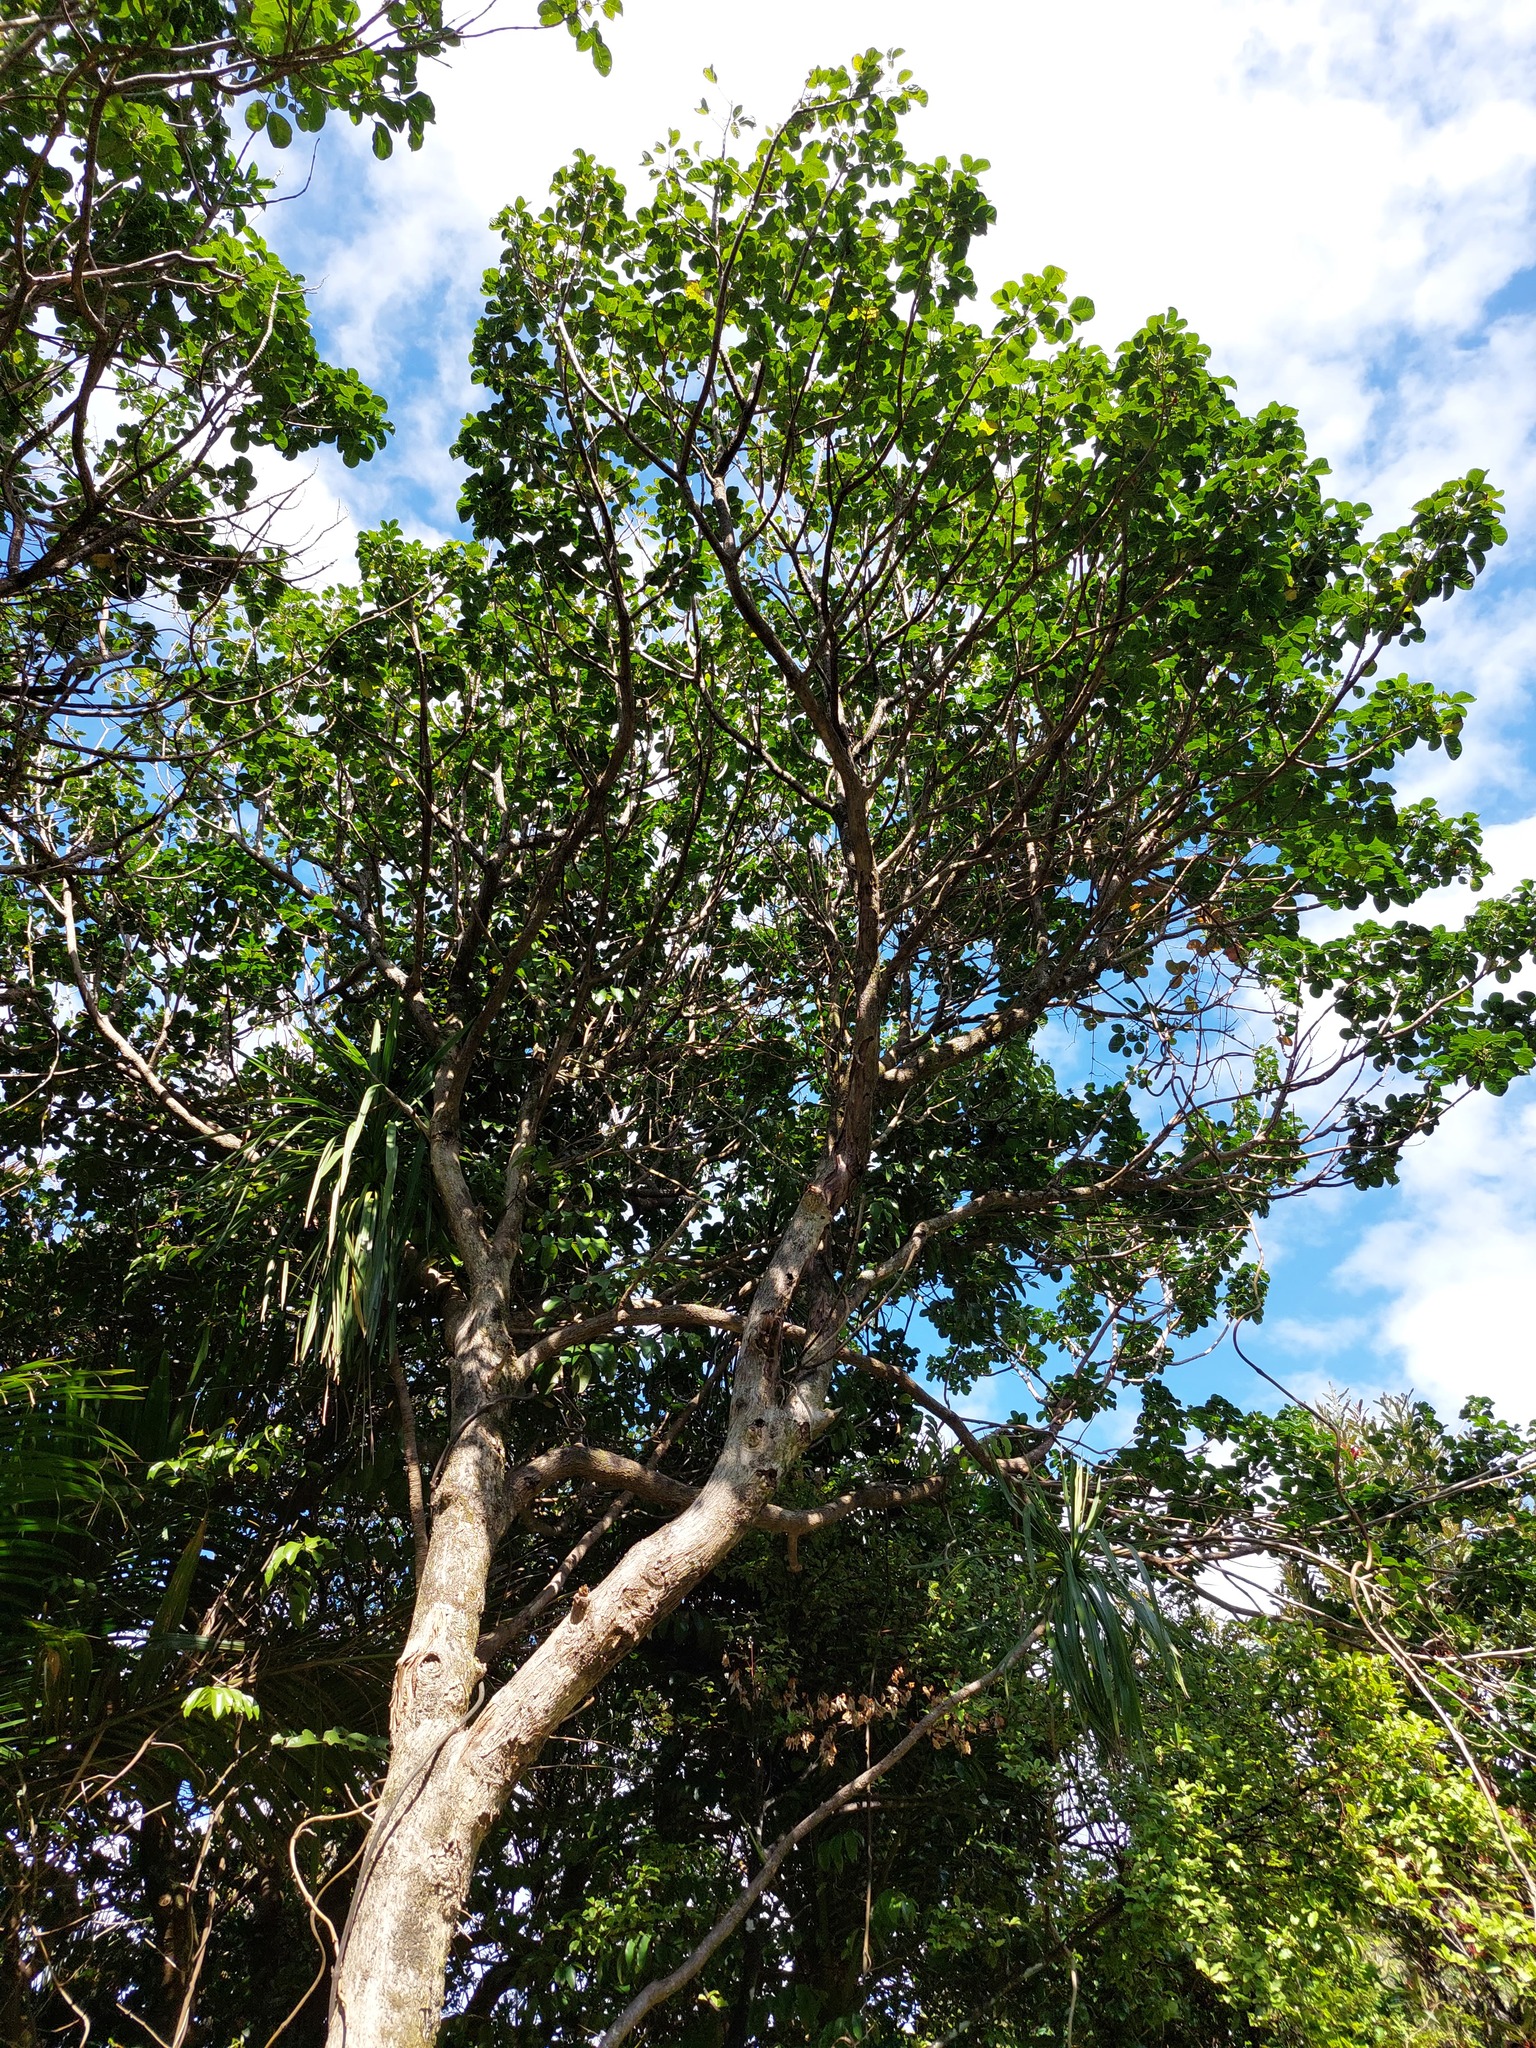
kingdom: Plantae
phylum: Tracheophyta
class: Magnoliopsida
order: Lamiales
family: Lamiaceae
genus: Vitex
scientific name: Vitex lucens
